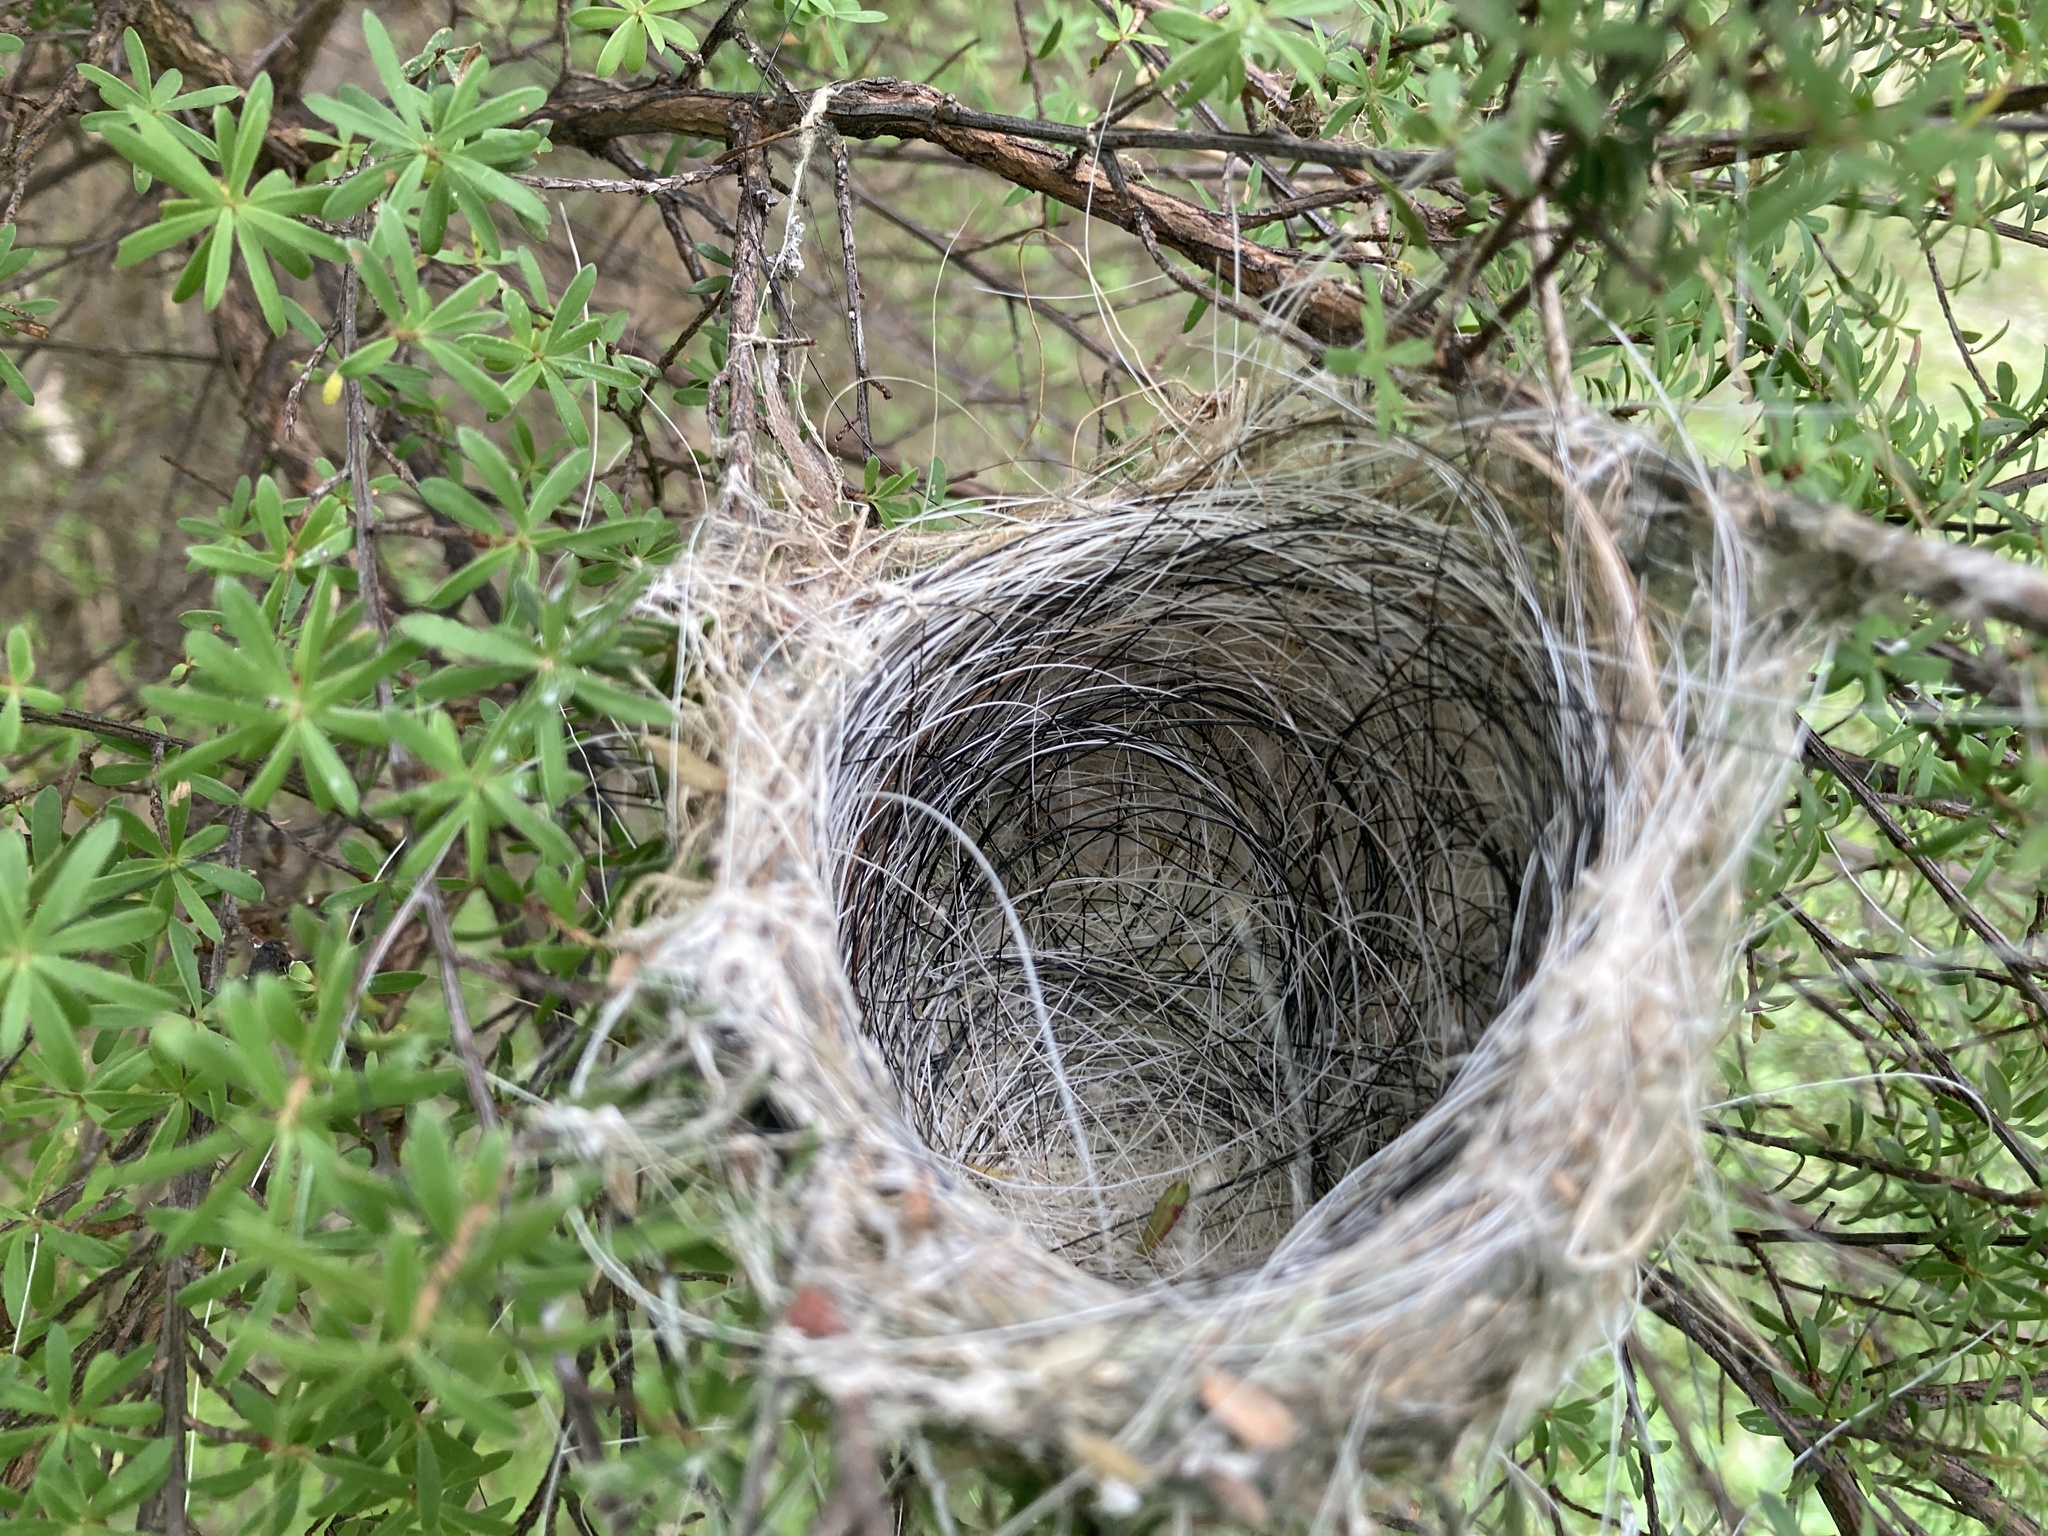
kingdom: Animalia
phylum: Chordata
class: Aves
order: Passeriformes
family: Rhipiduridae
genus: Rhipidura
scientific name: Rhipidura fuliginosa
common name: New zealand fantail
